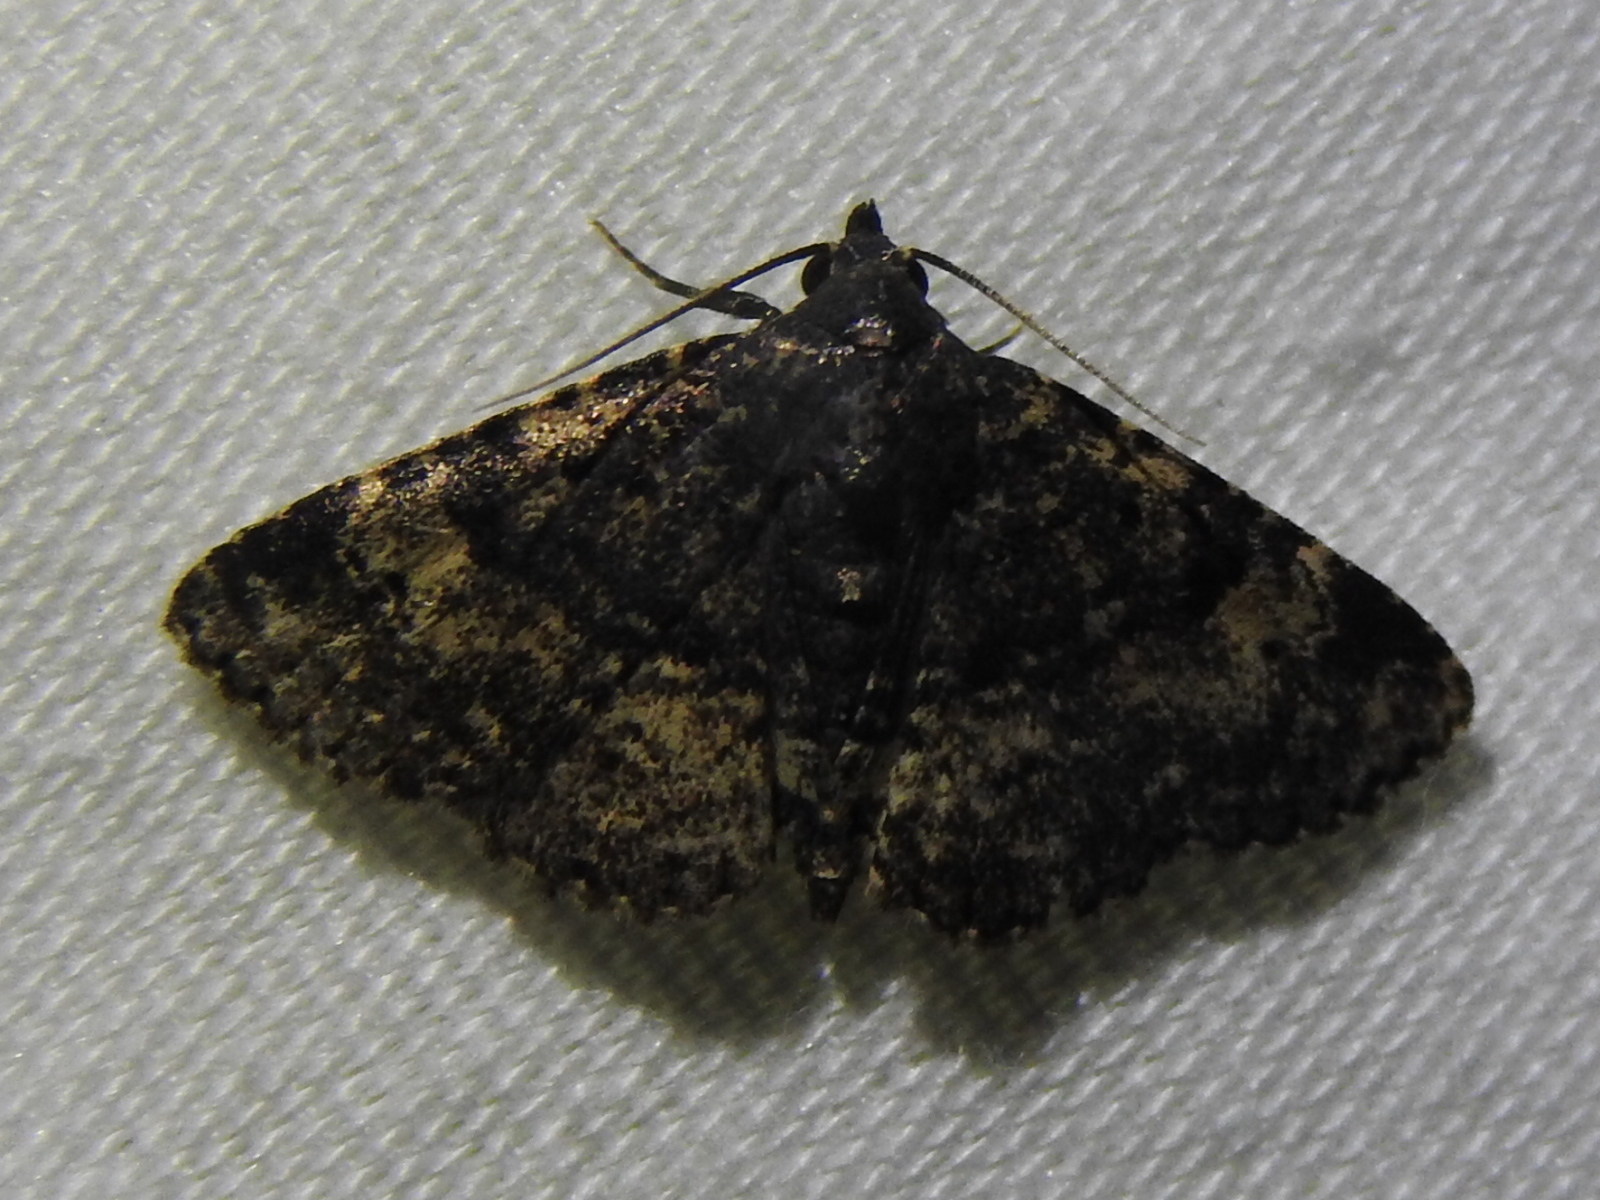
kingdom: Animalia
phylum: Arthropoda
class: Insecta
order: Lepidoptera
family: Erebidae
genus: Metalectra
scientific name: Metalectra discalis
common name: Common fungus moth
